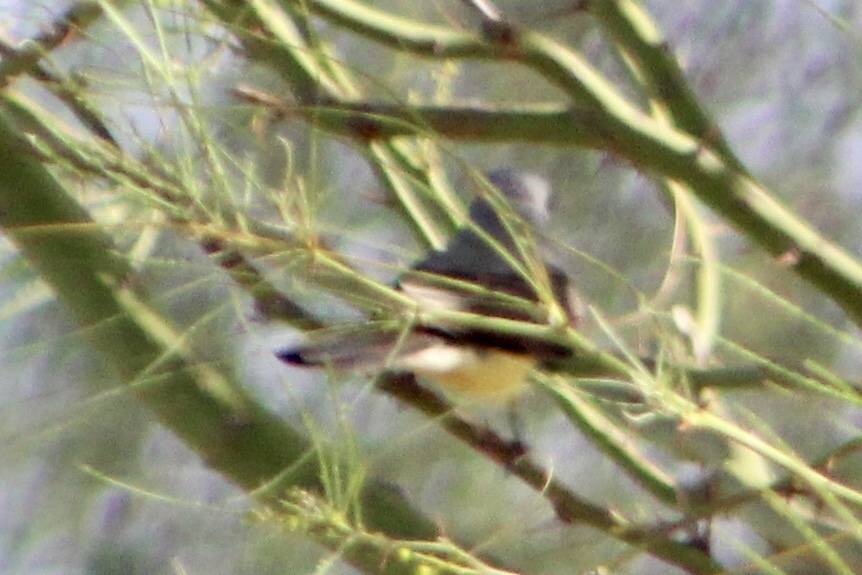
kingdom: Animalia
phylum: Chordata
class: Aves
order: Passeriformes
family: Tyrannidae
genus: Tyrannus
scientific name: Tyrannus vociferans
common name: Cassin's kingbird
